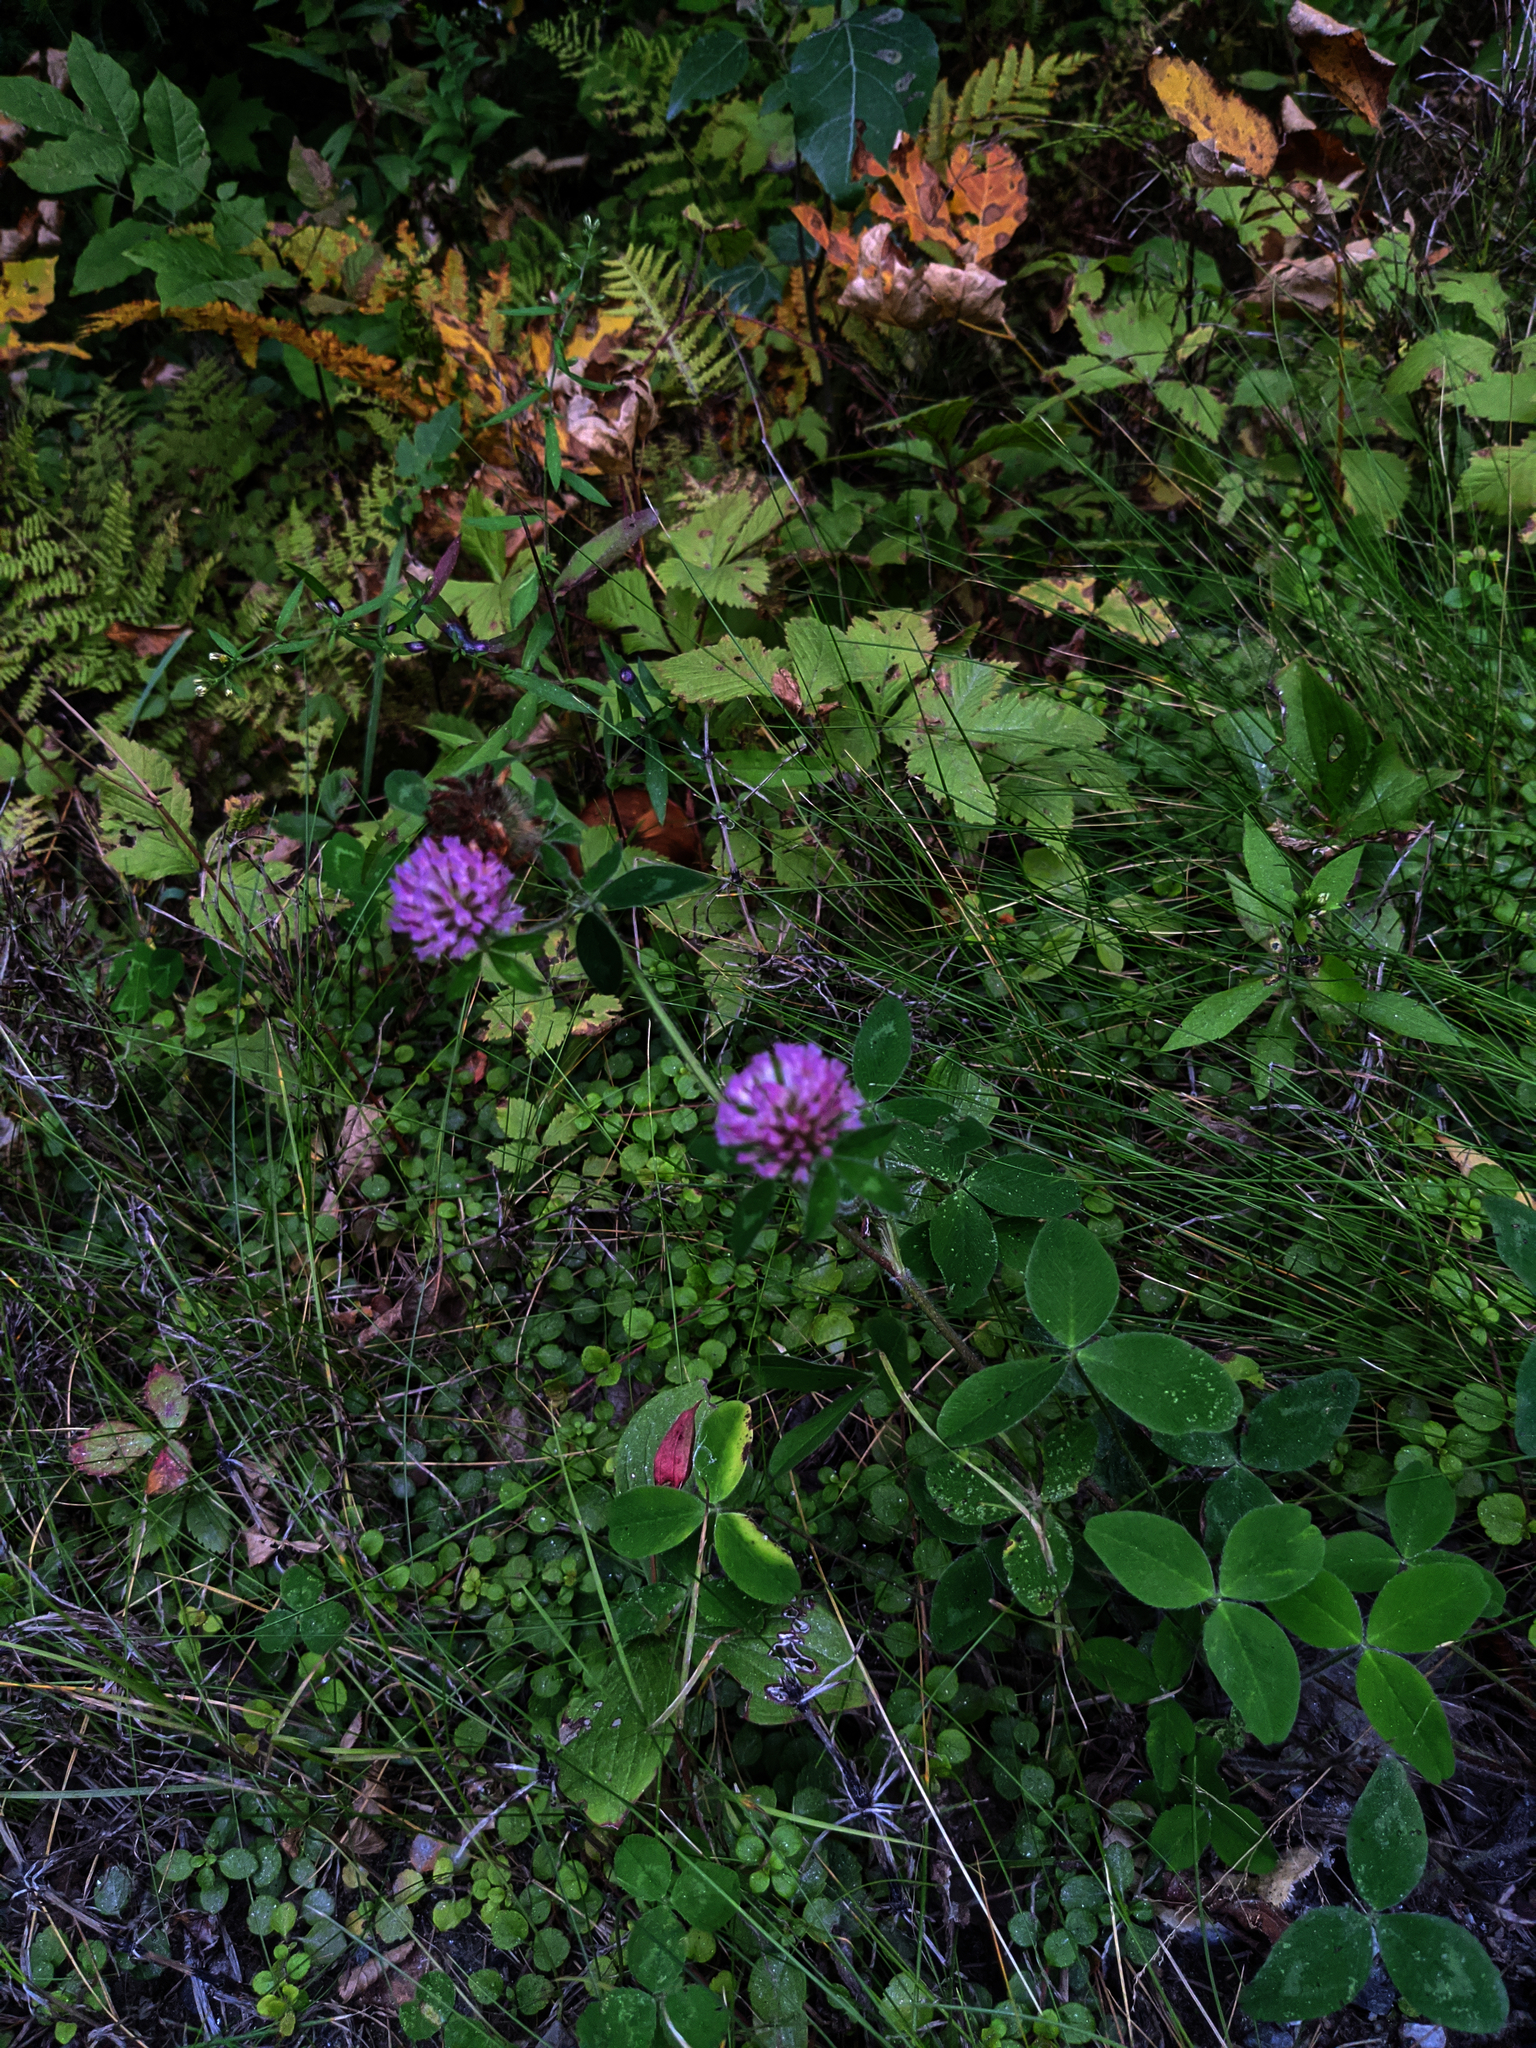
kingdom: Plantae
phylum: Tracheophyta
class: Magnoliopsida
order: Fabales
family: Fabaceae
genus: Trifolium
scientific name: Trifolium pratense
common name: Red clover
